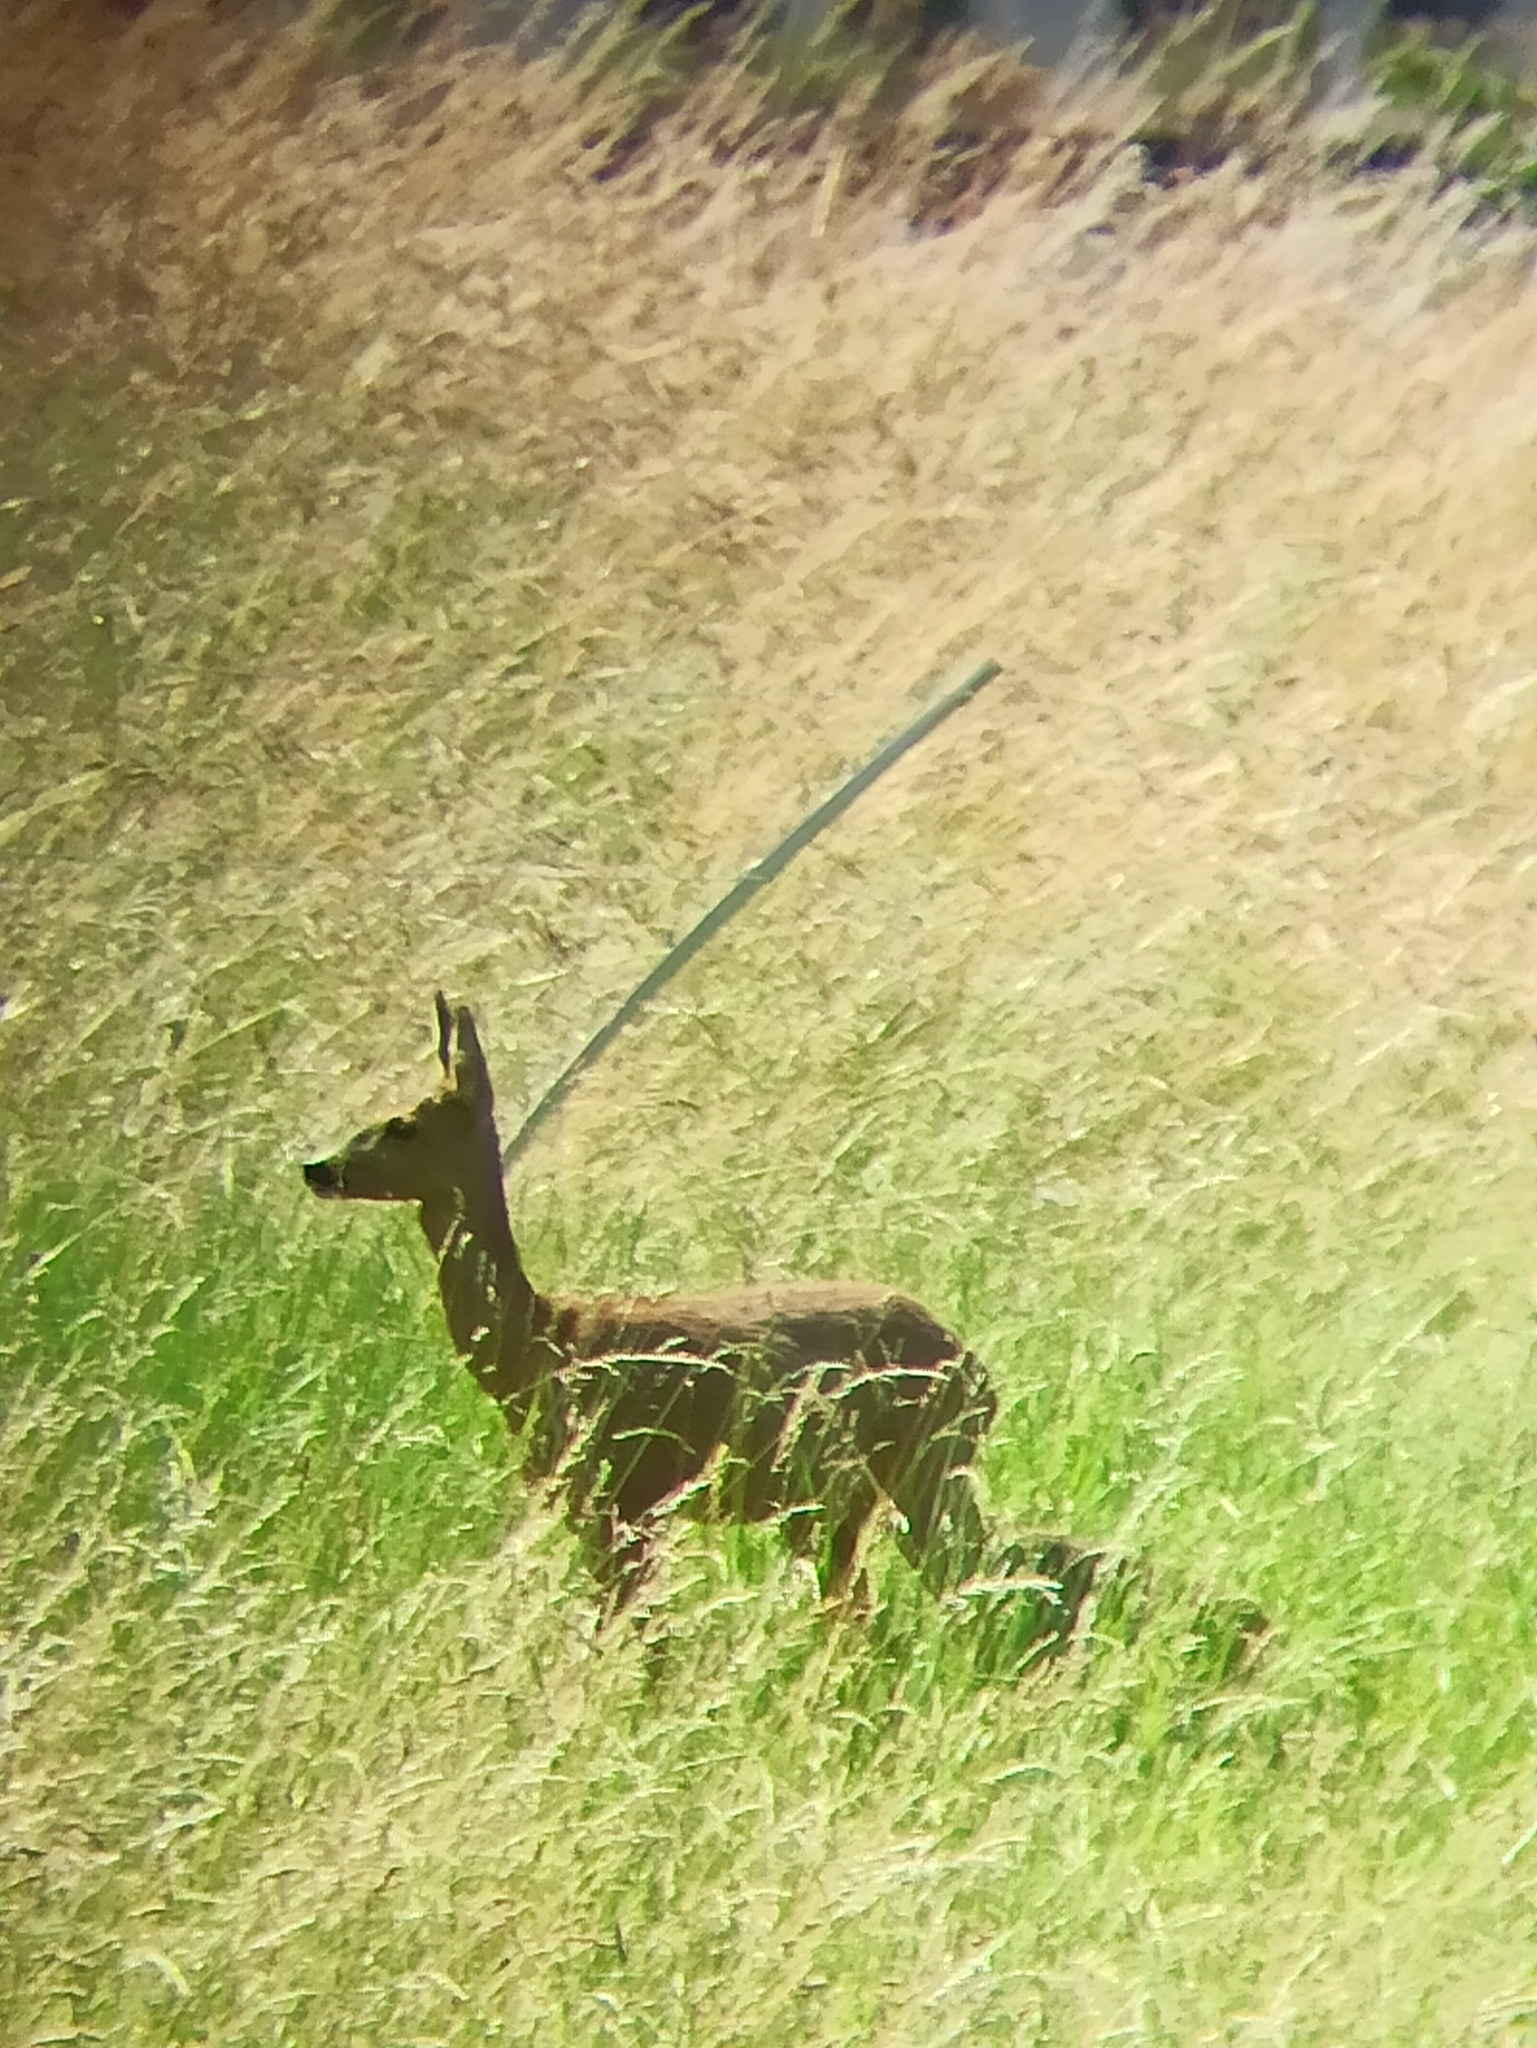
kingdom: Animalia
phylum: Chordata
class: Mammalia
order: Artiodactyla
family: Cervidae
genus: Capreolus
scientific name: Capreolus capreolus
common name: Western roe deer
